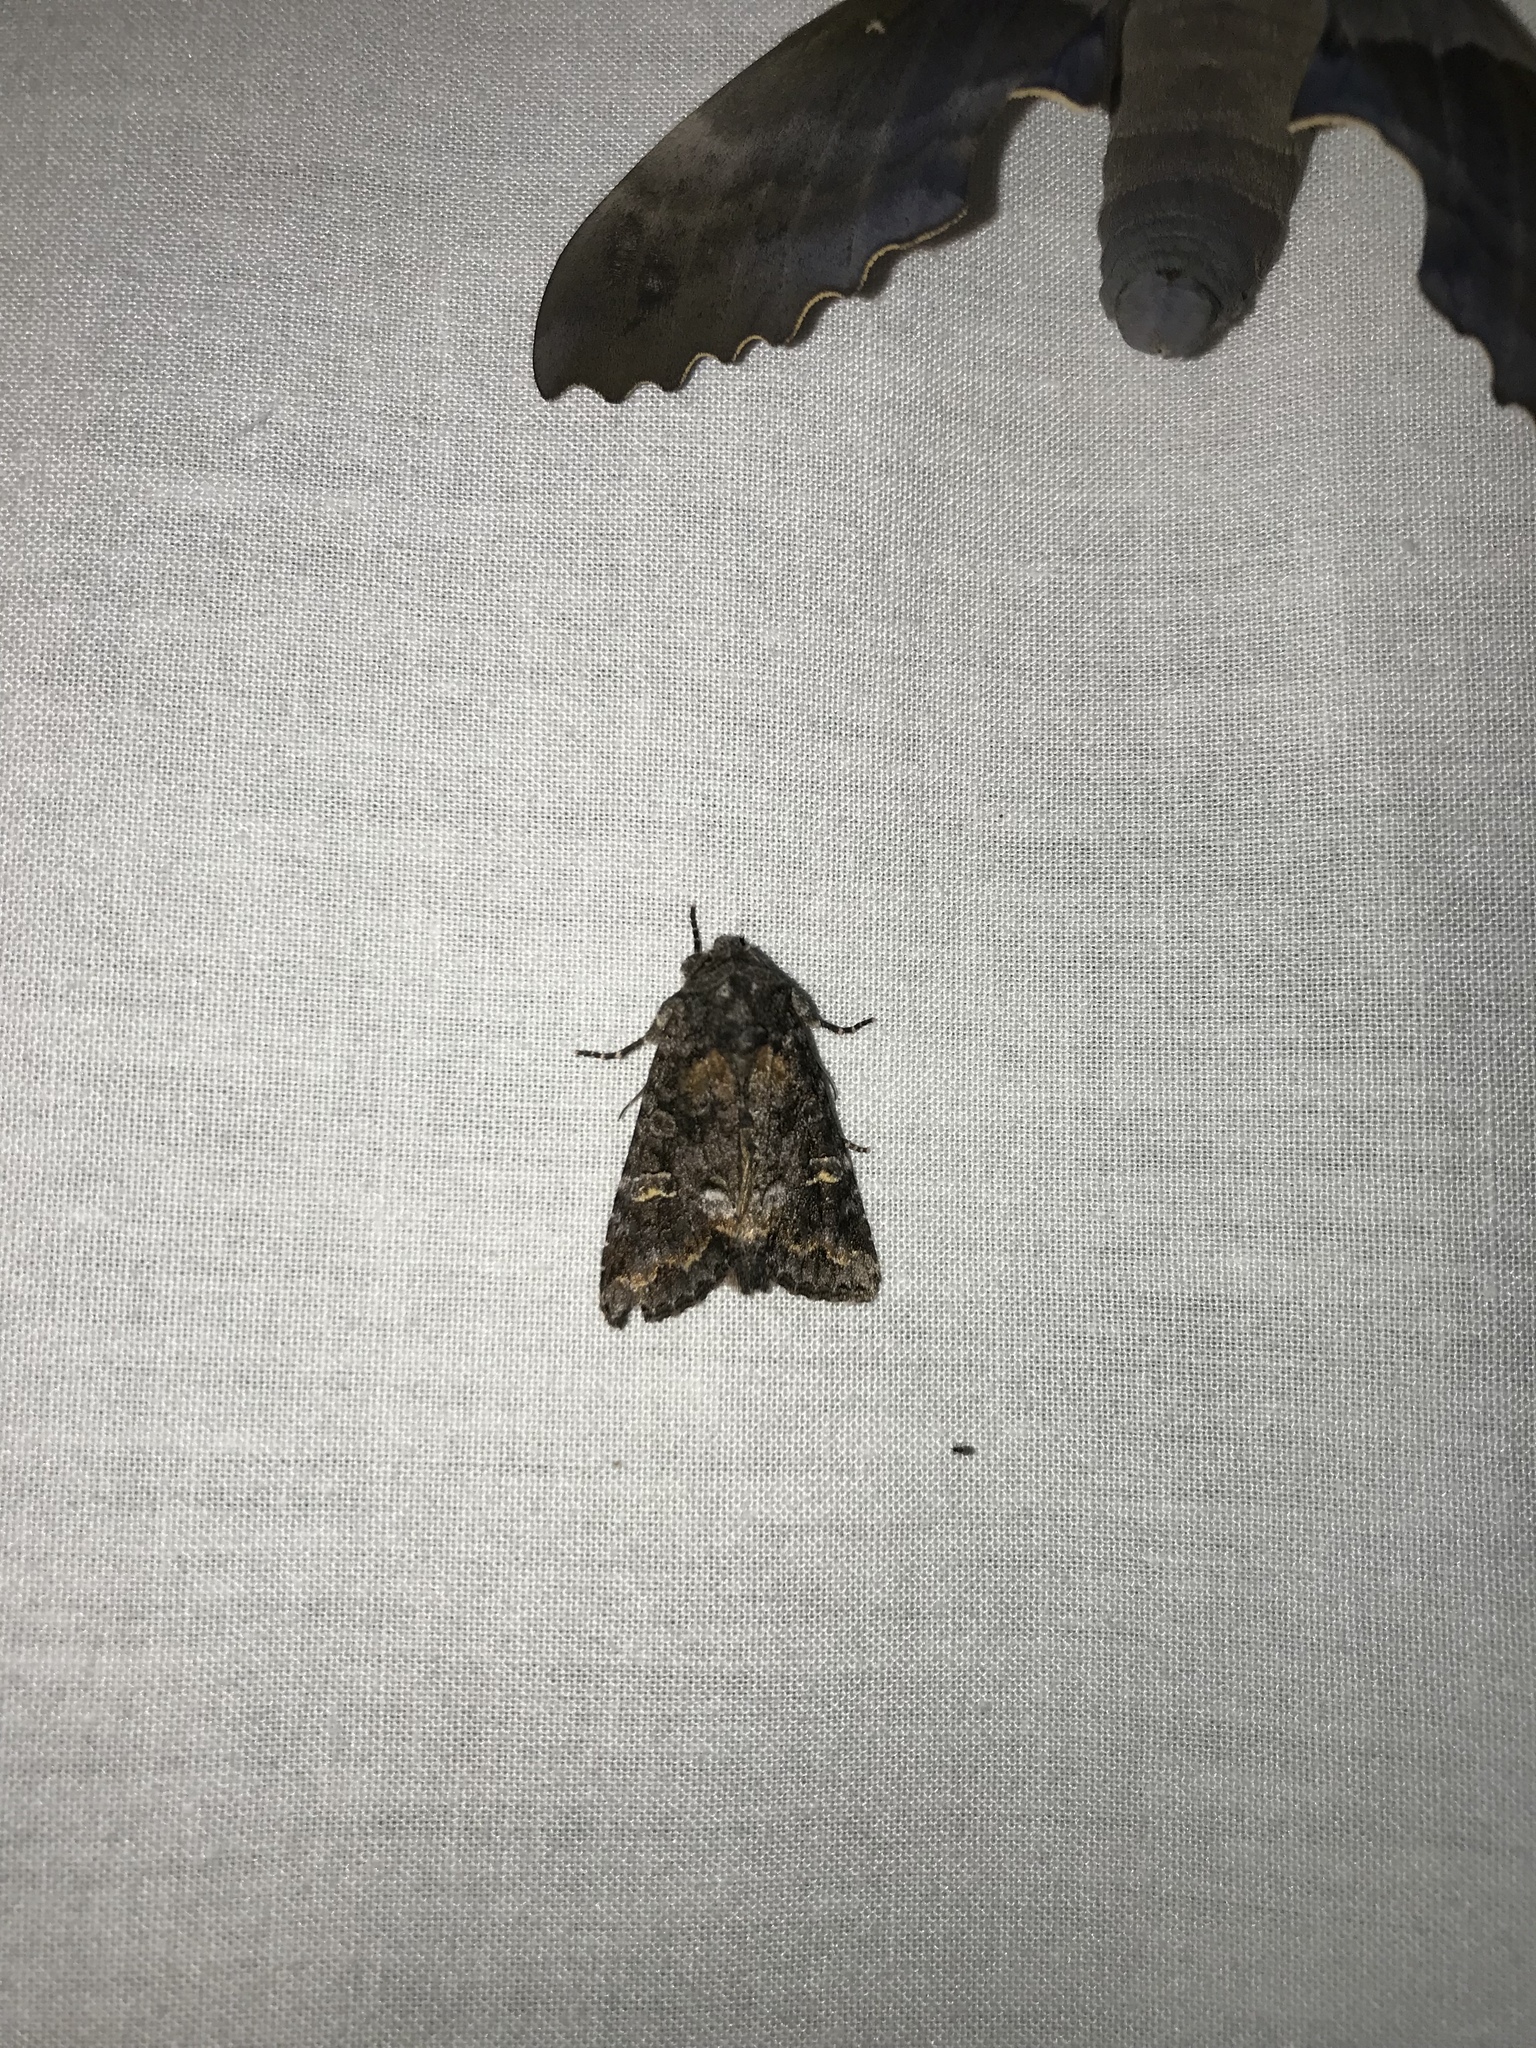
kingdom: Animalia
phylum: Arthropoda
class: Insecta
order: Lepidoptera
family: Noctuidae
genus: Spiramater
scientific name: Spiramater lutra
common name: Otter spiramater moth
